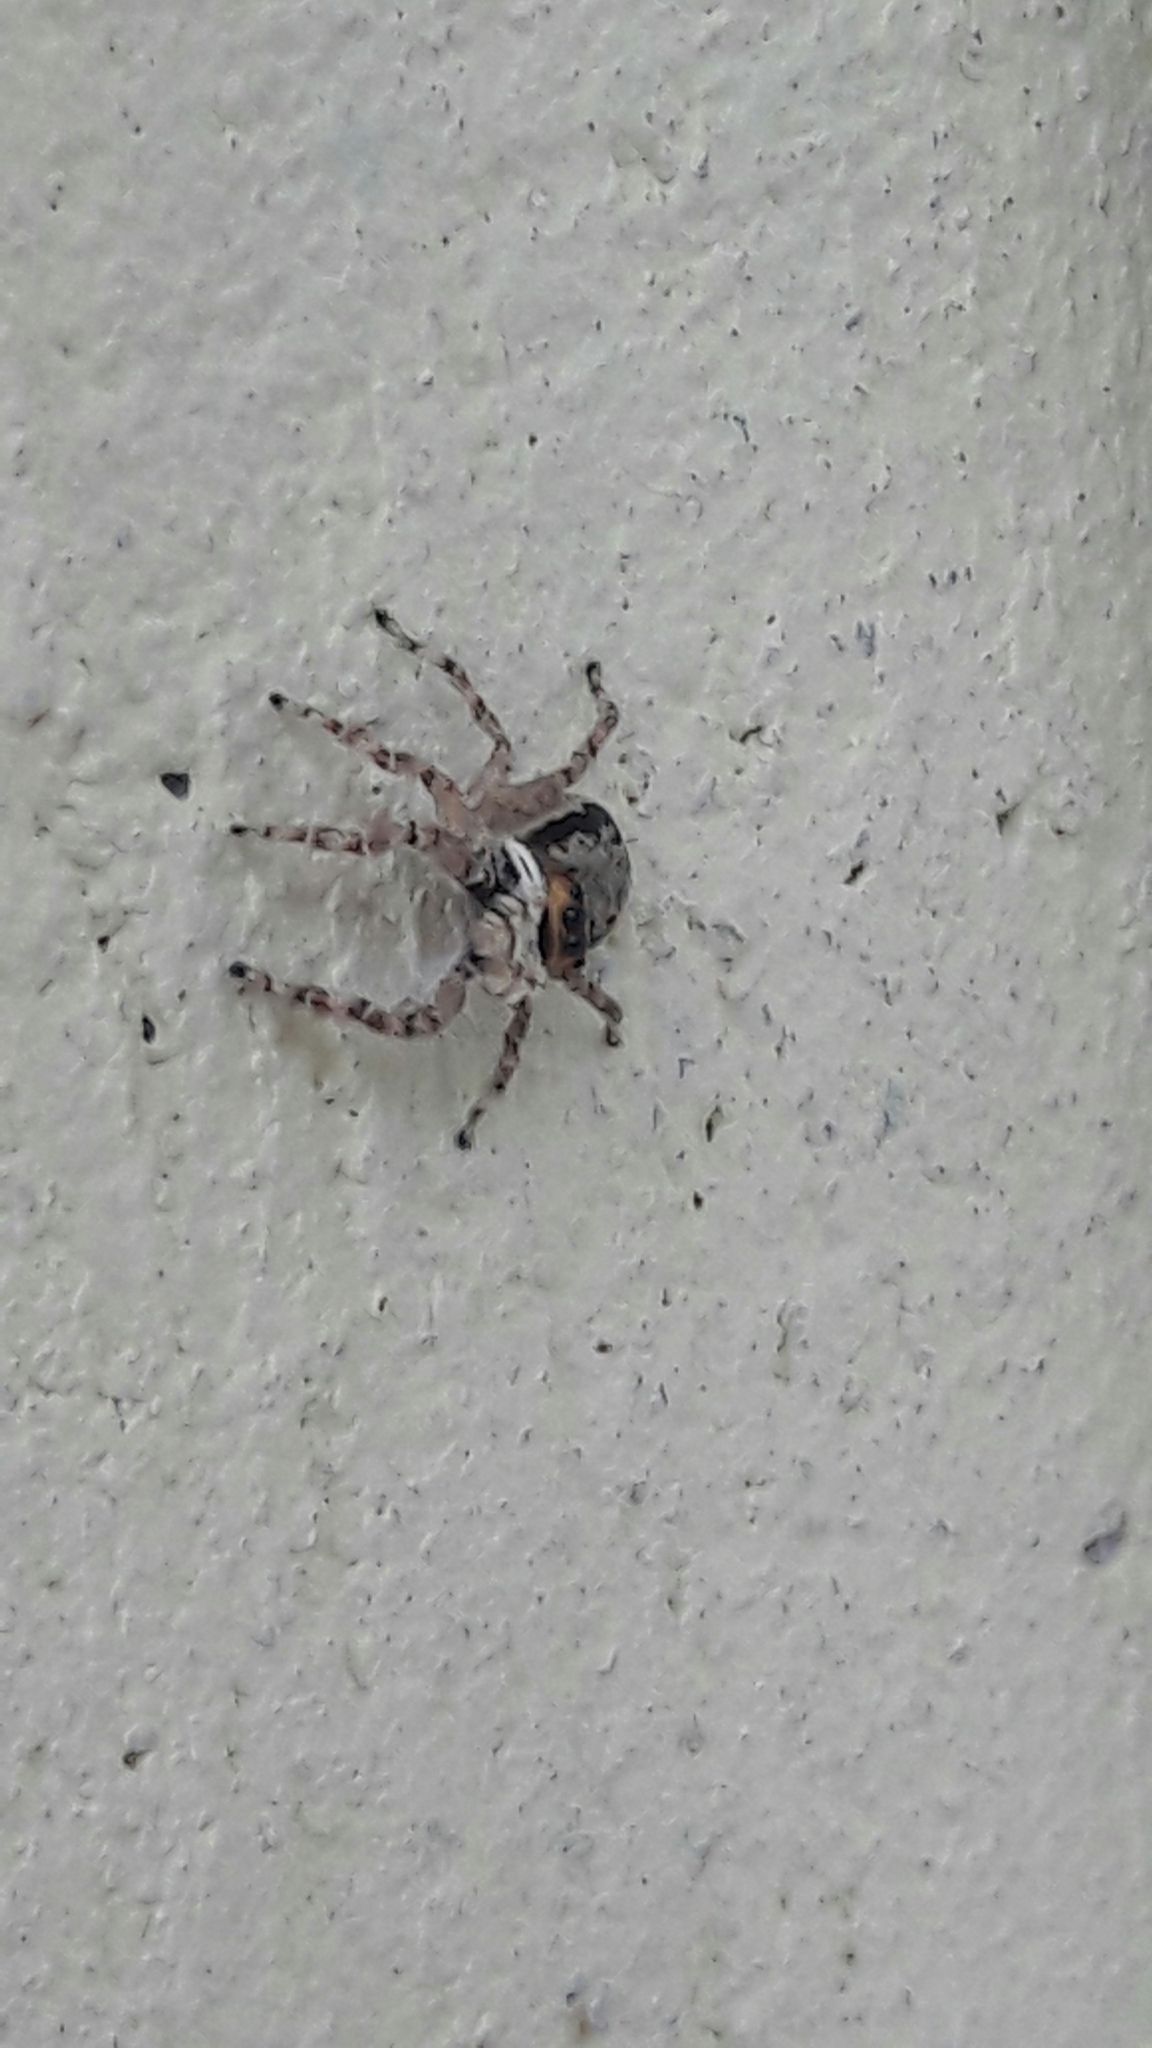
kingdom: Animalia
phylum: Arthropoda
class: Arachnida
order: Araneae
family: Salticidae
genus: Menemerus
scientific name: Menemerus bivittatus
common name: Gray wall jumper
